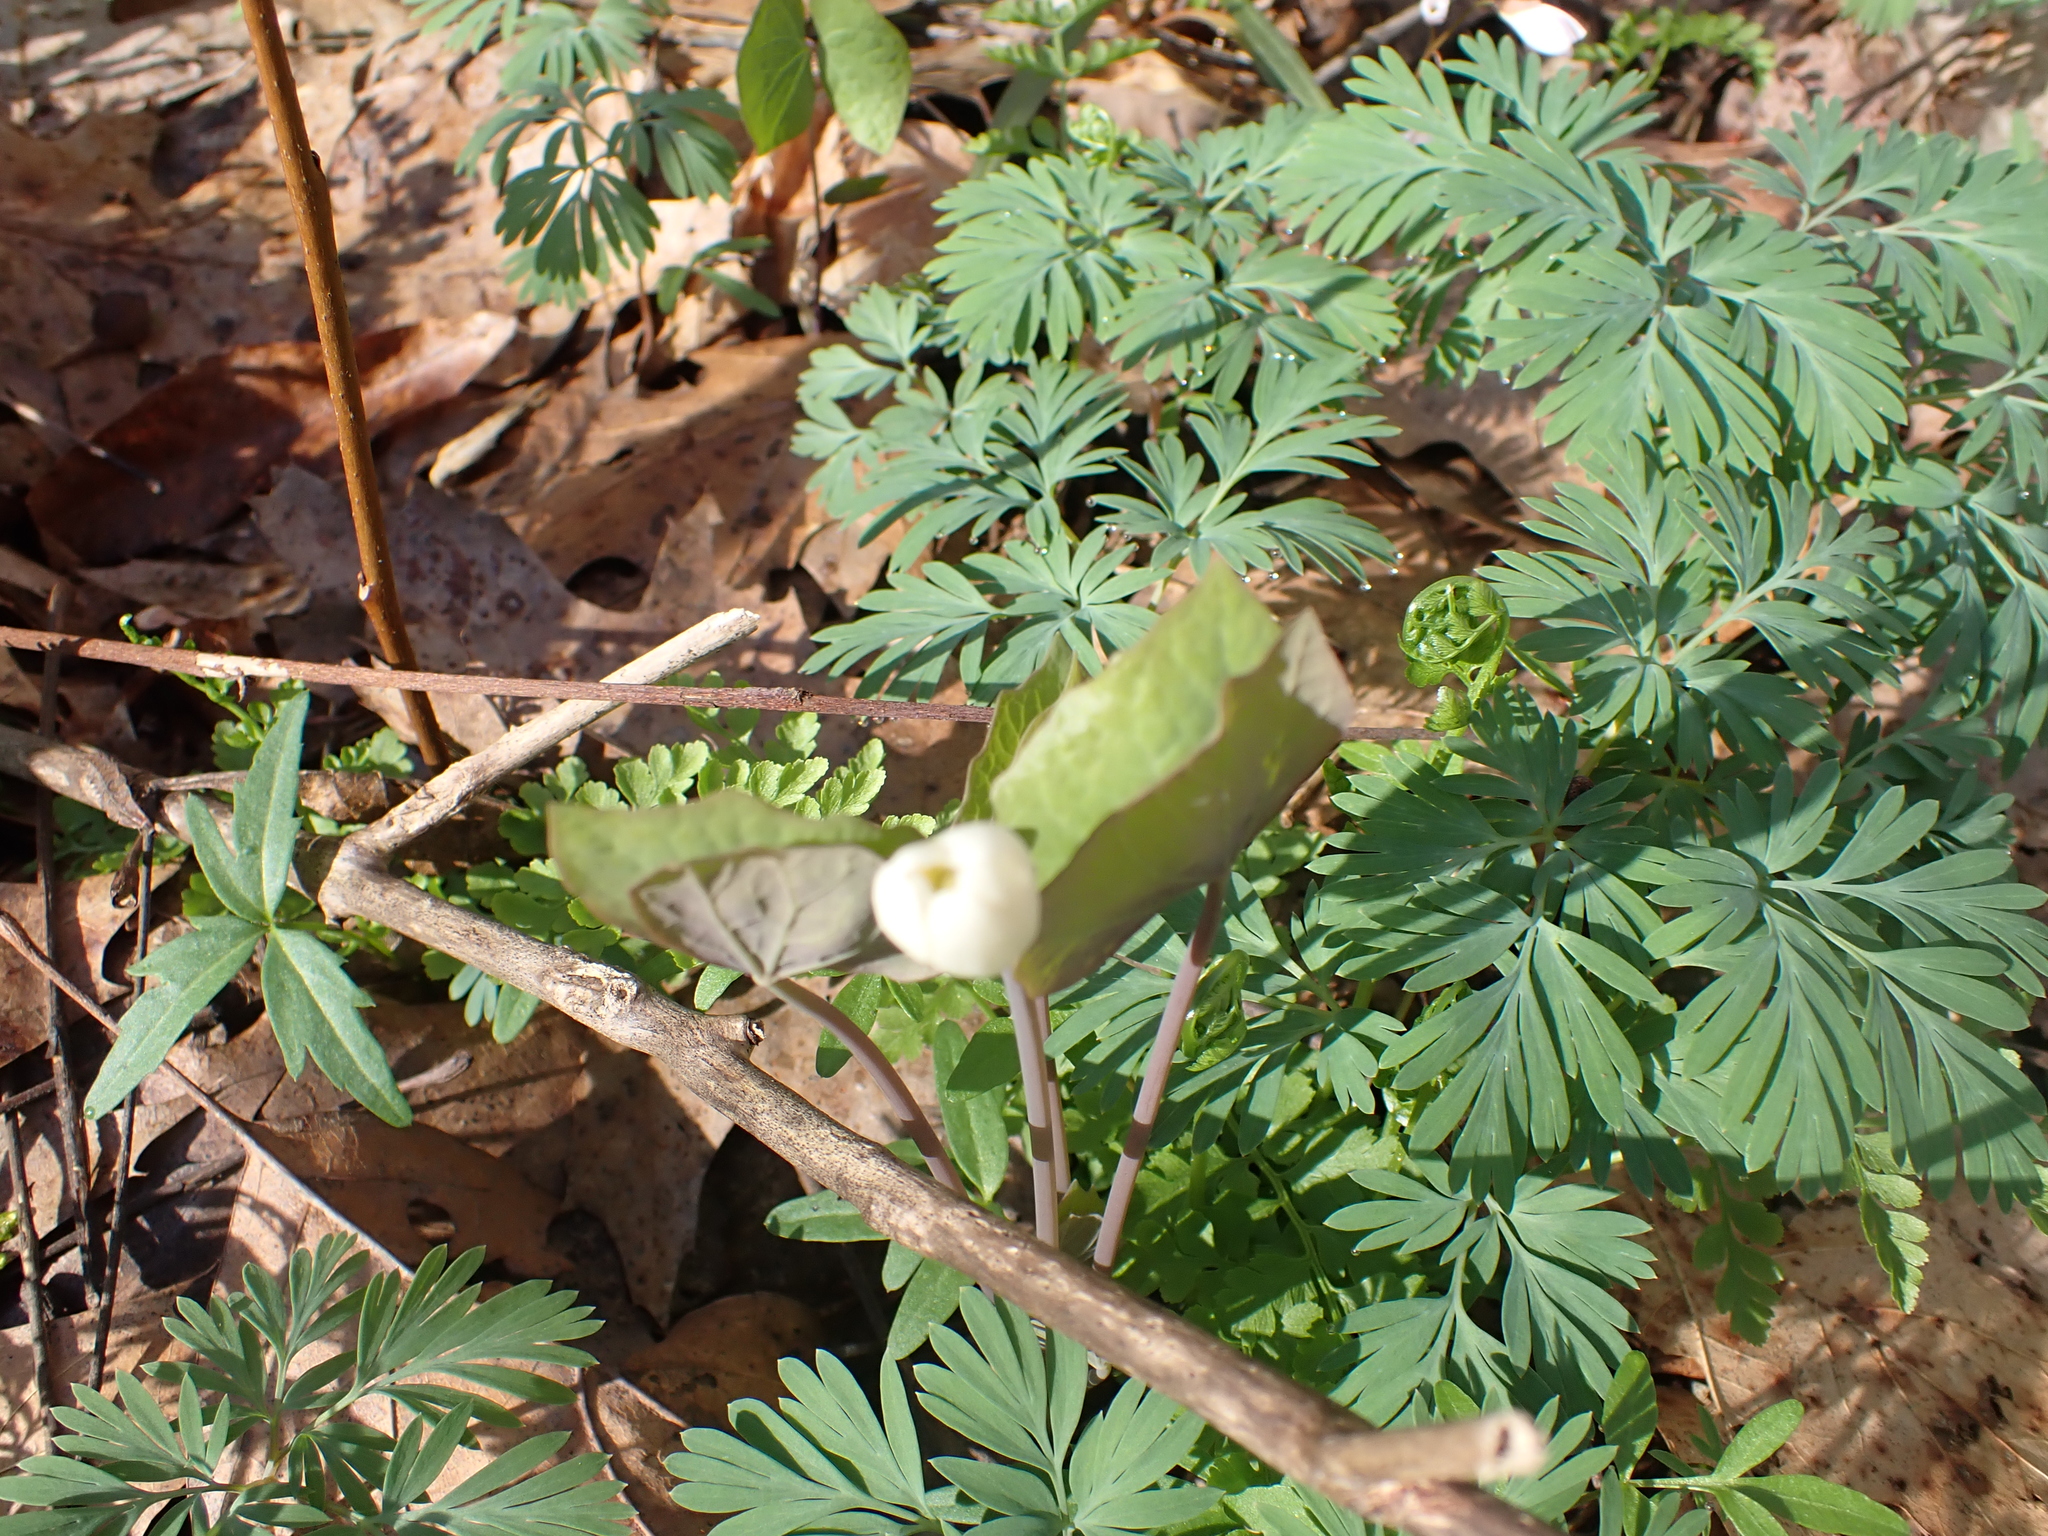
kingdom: Plantae
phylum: Tracheophyta
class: Magnoliopsida
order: Ranunculales
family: Berberidaceae
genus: Jeffersonia
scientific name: Jeffersonia diphylla
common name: Rheumatism-root
